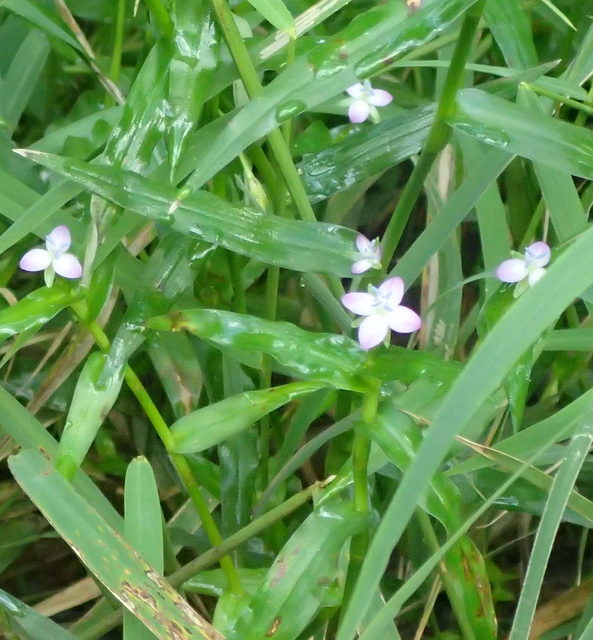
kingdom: Plantae
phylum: Tracheophyta
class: Liliopsida
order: Commelinales
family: Commelinaceae
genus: Murdannia
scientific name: Murdannia keisak
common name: Wartremoving herb
